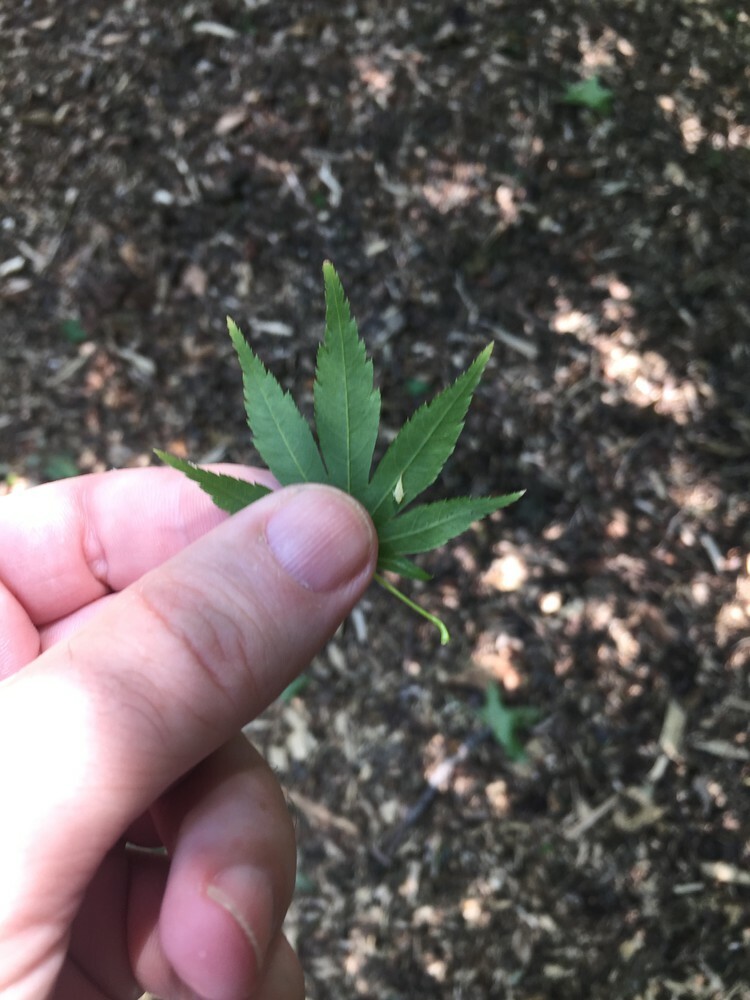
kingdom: Animalia
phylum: Arthropoda
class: Insecta
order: Hemiptera
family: Cicadellidae
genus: Japananus
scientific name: Japananus hyalinus
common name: The japanese maple leafhopper
